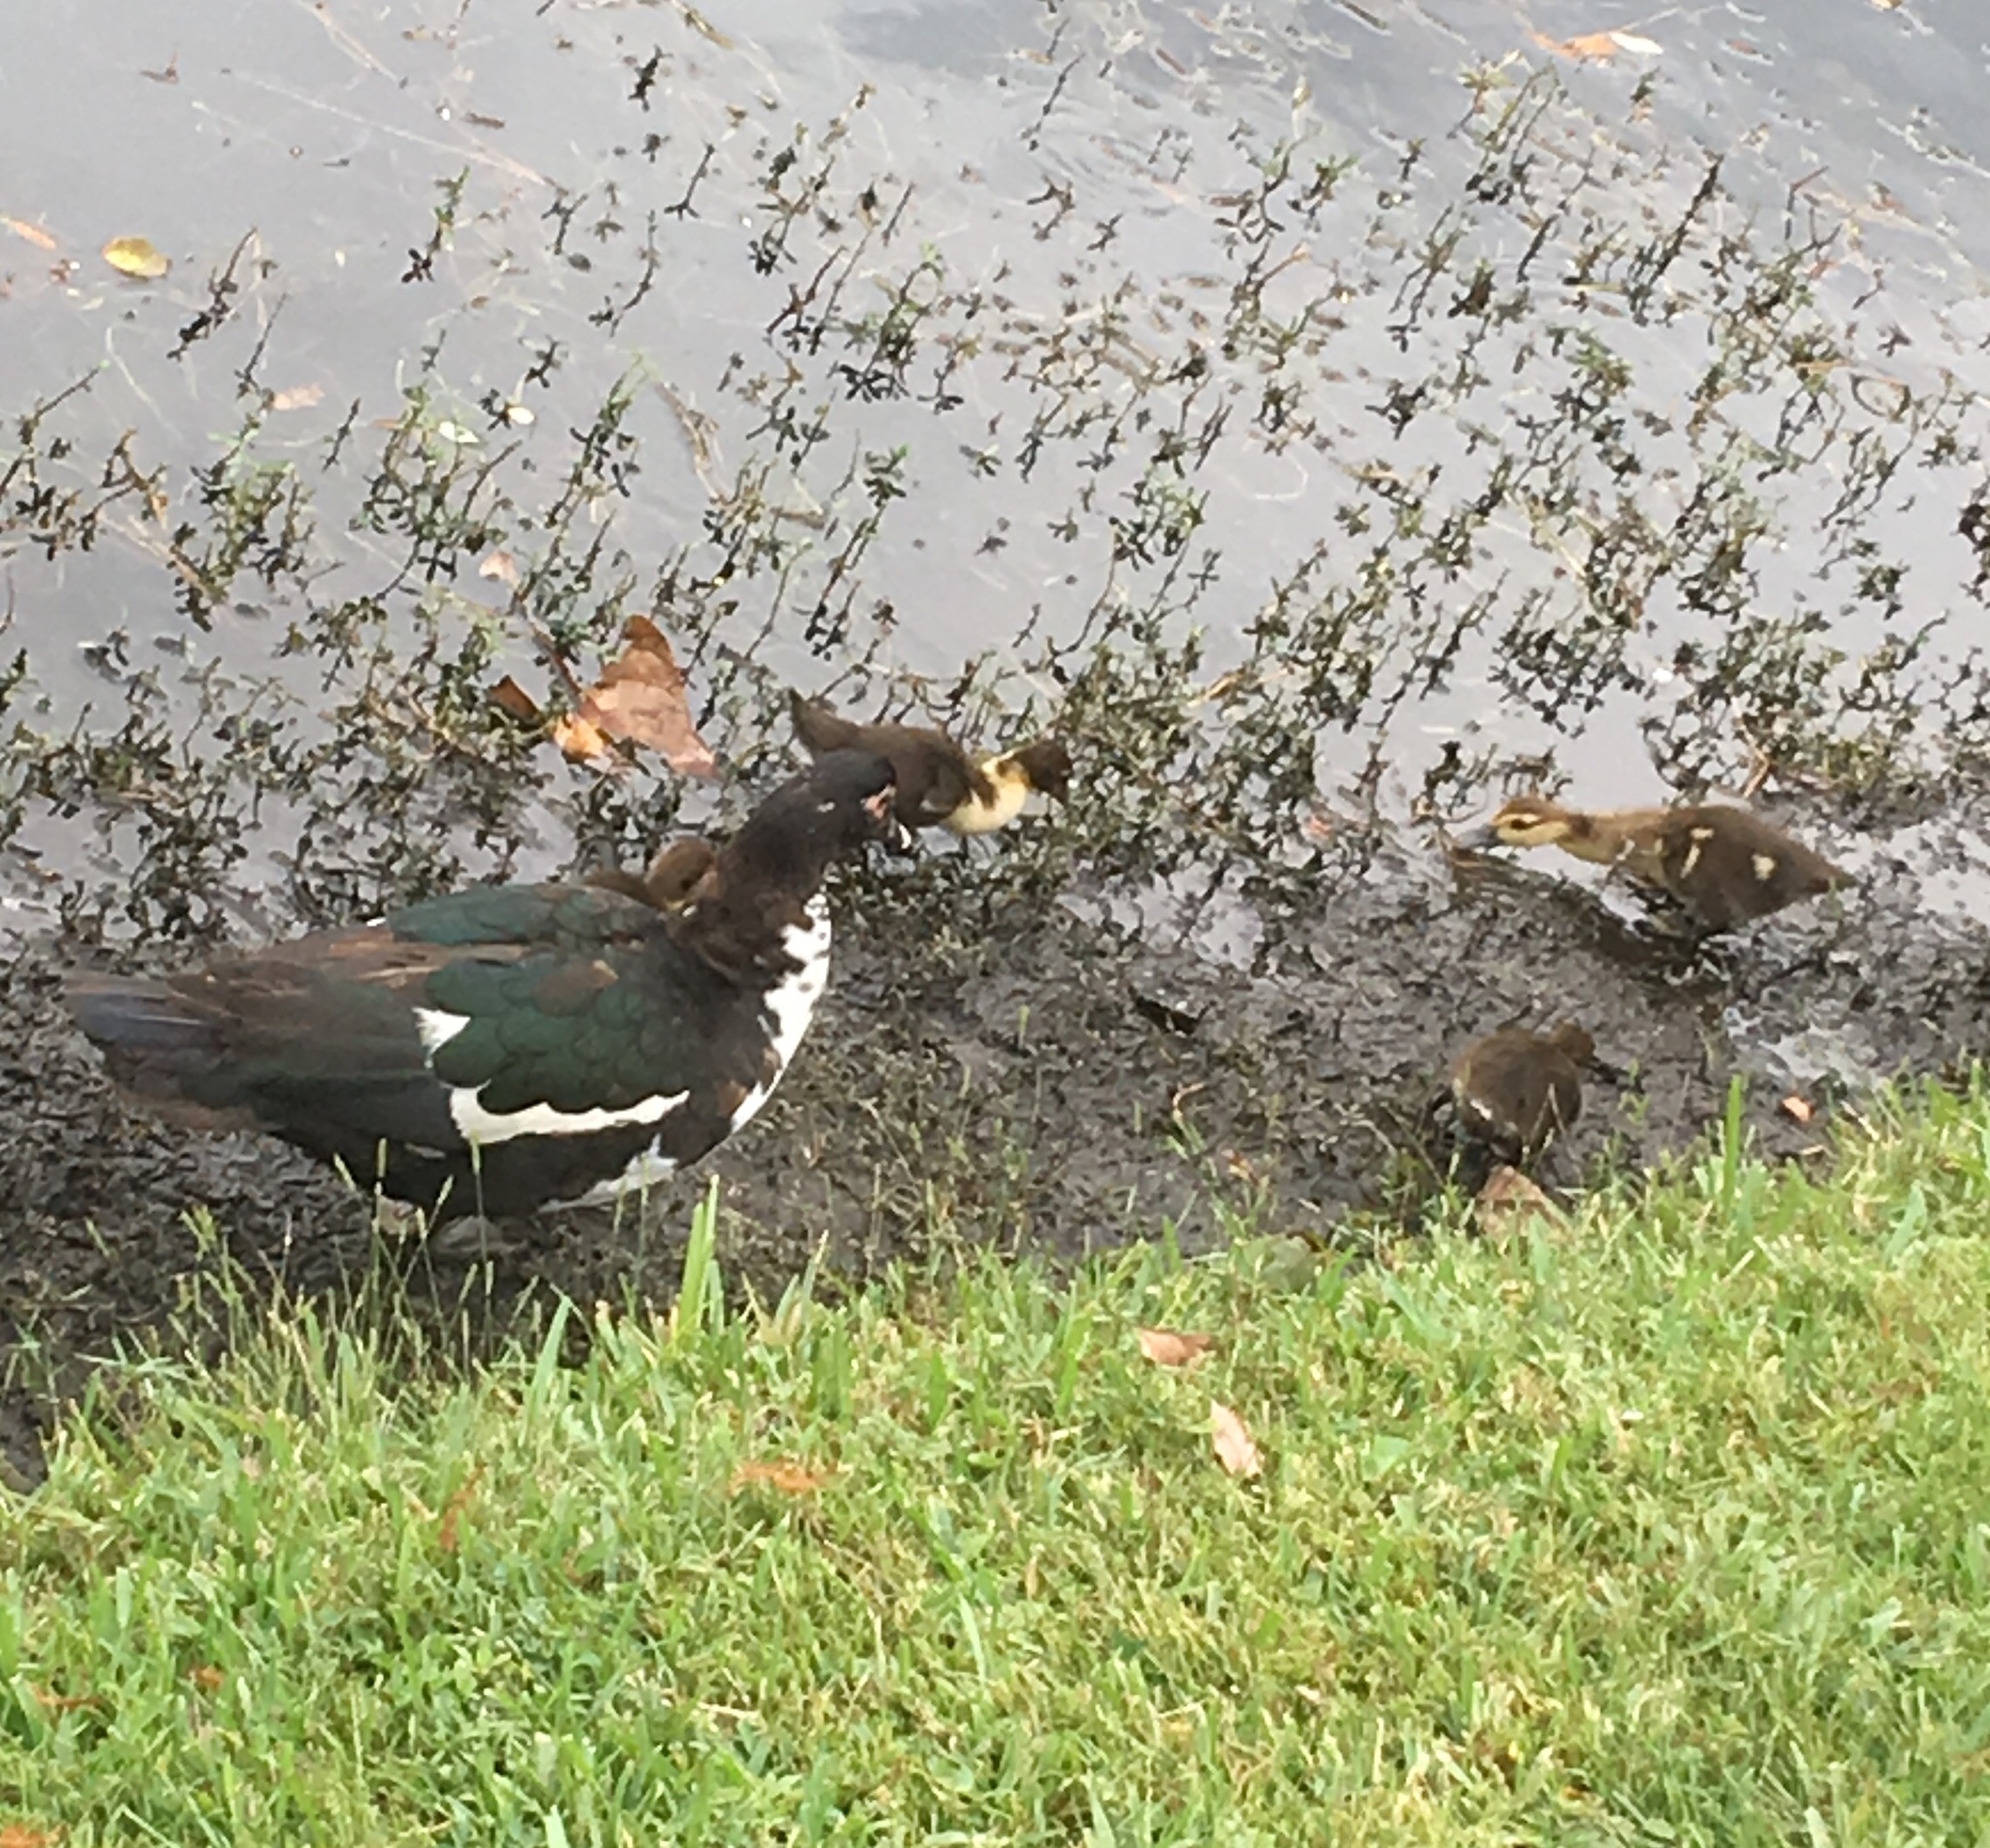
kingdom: Animalia
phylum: Chordata
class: Aves
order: Anseriformes
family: Anatidae
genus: Cairina
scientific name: Cairina moschata
